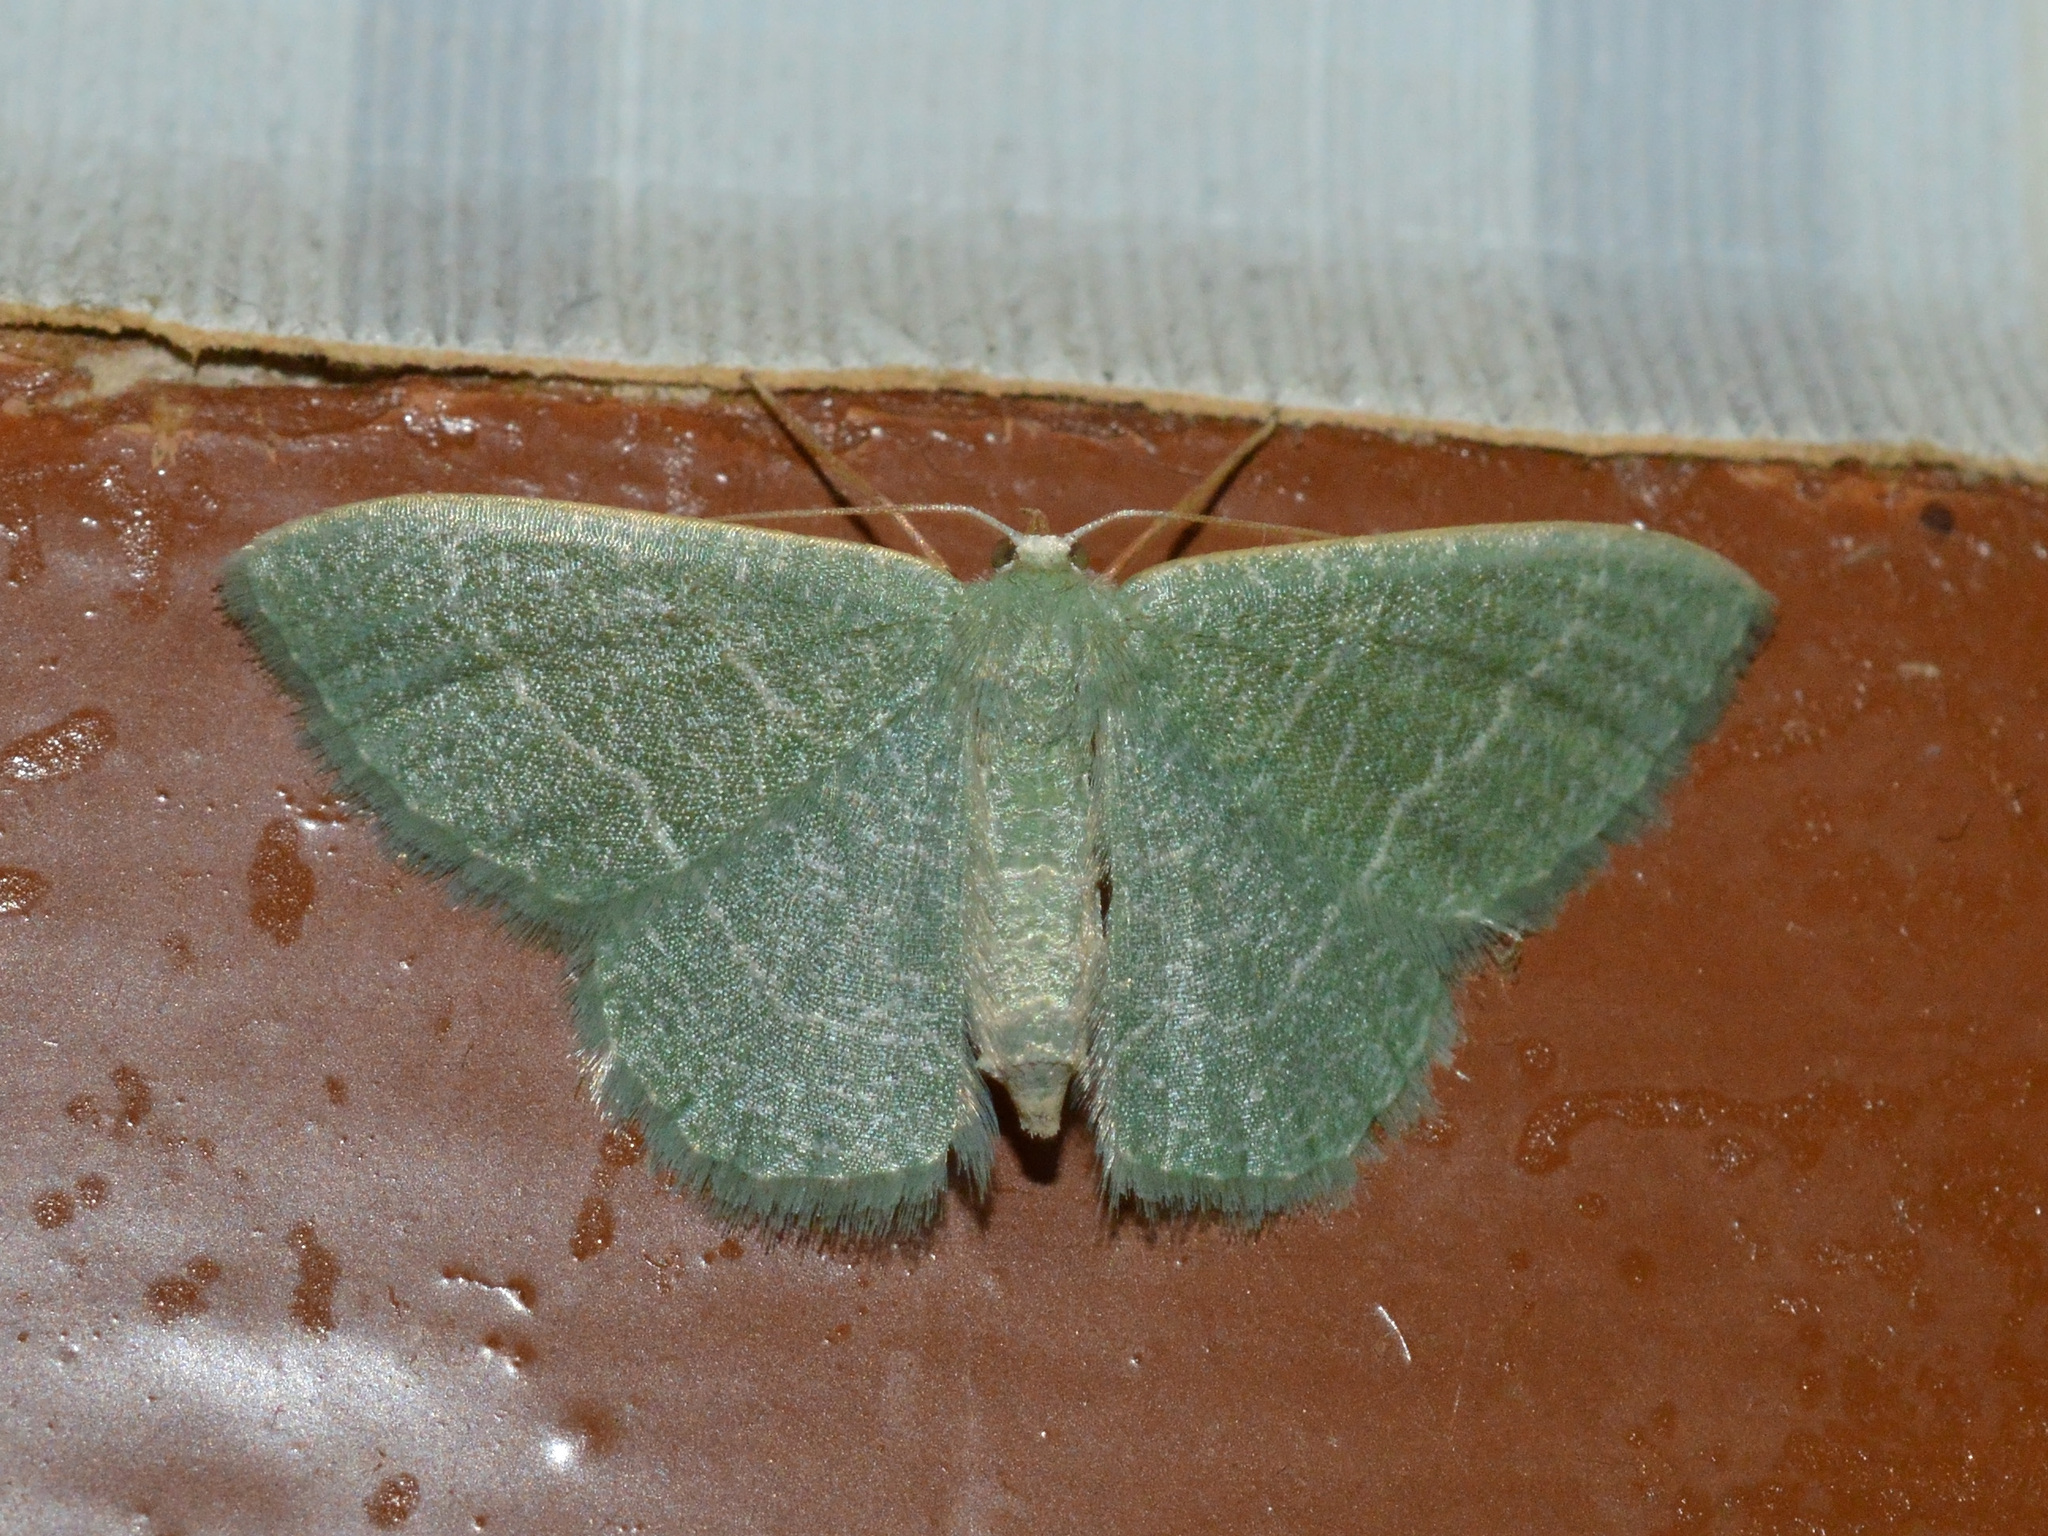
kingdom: Animalia
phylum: Arthropoda
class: Insecta
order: Lepidoptera
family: Geometridae
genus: Chlorissa
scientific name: Chlorissa etruscaria
